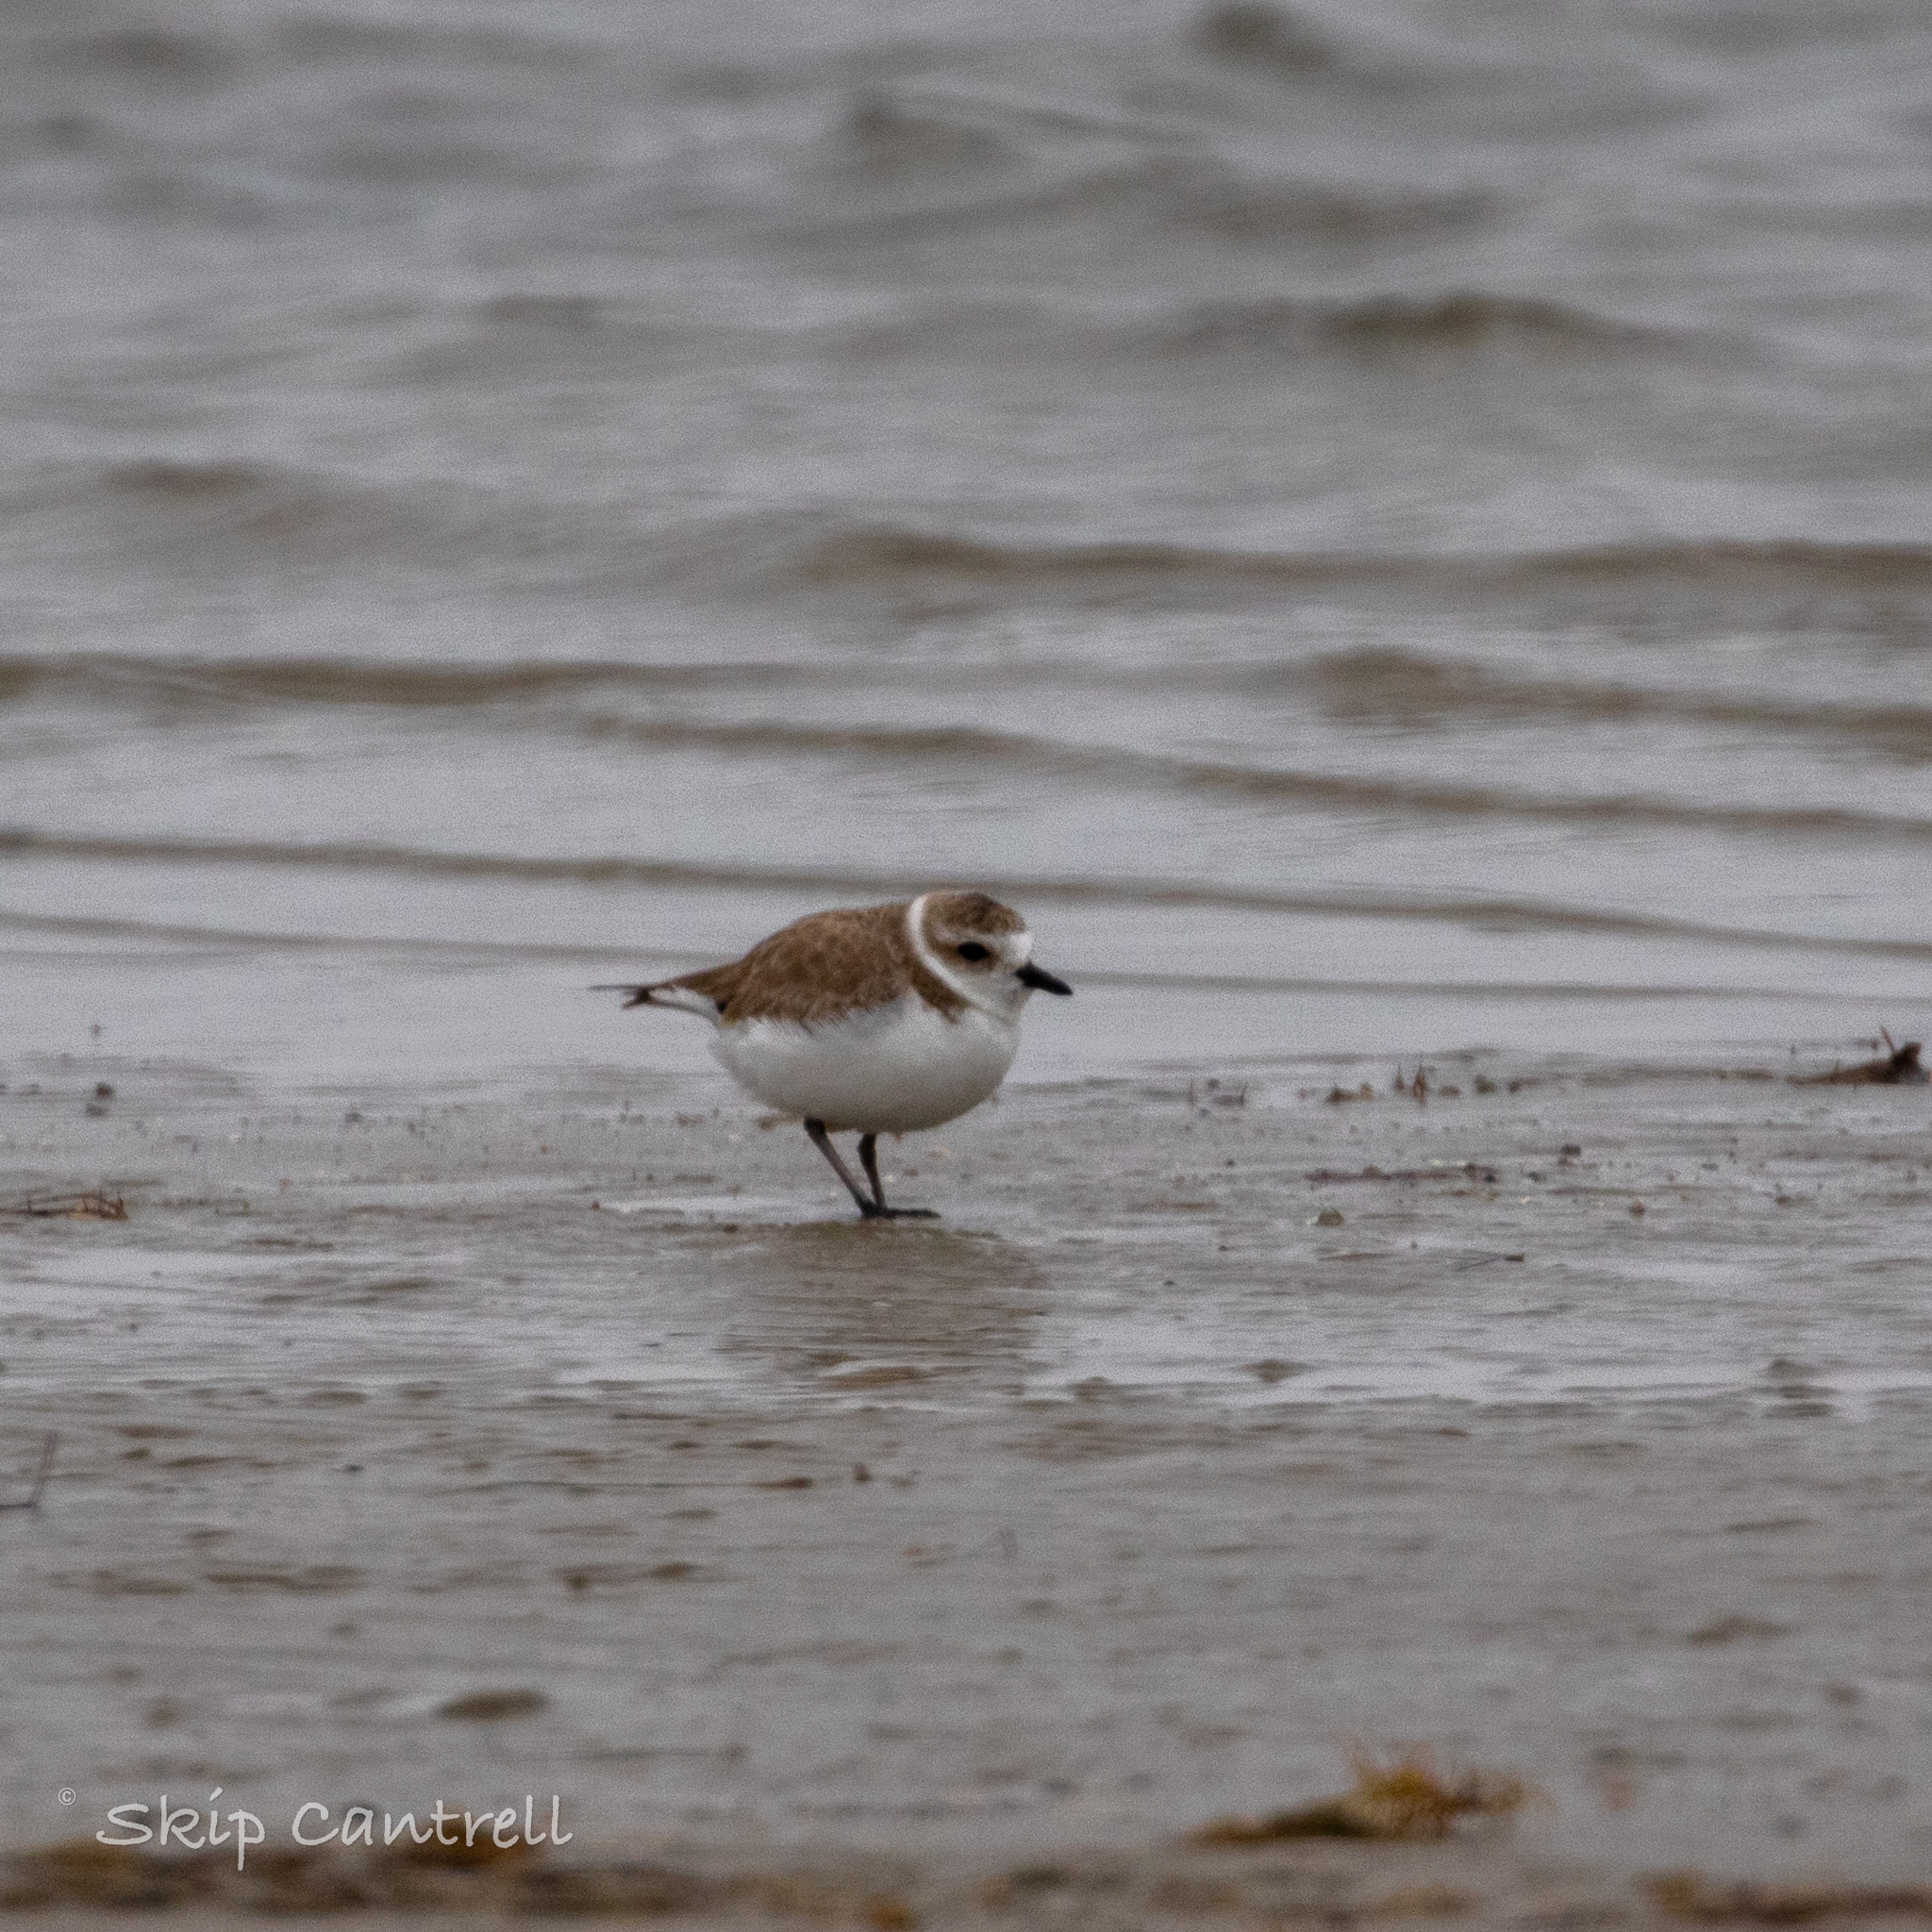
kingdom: Animalia
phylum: Chordata
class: Aves
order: Charadriiformes
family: Charadriidae
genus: Anarhynchus
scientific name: Anarhynchus
